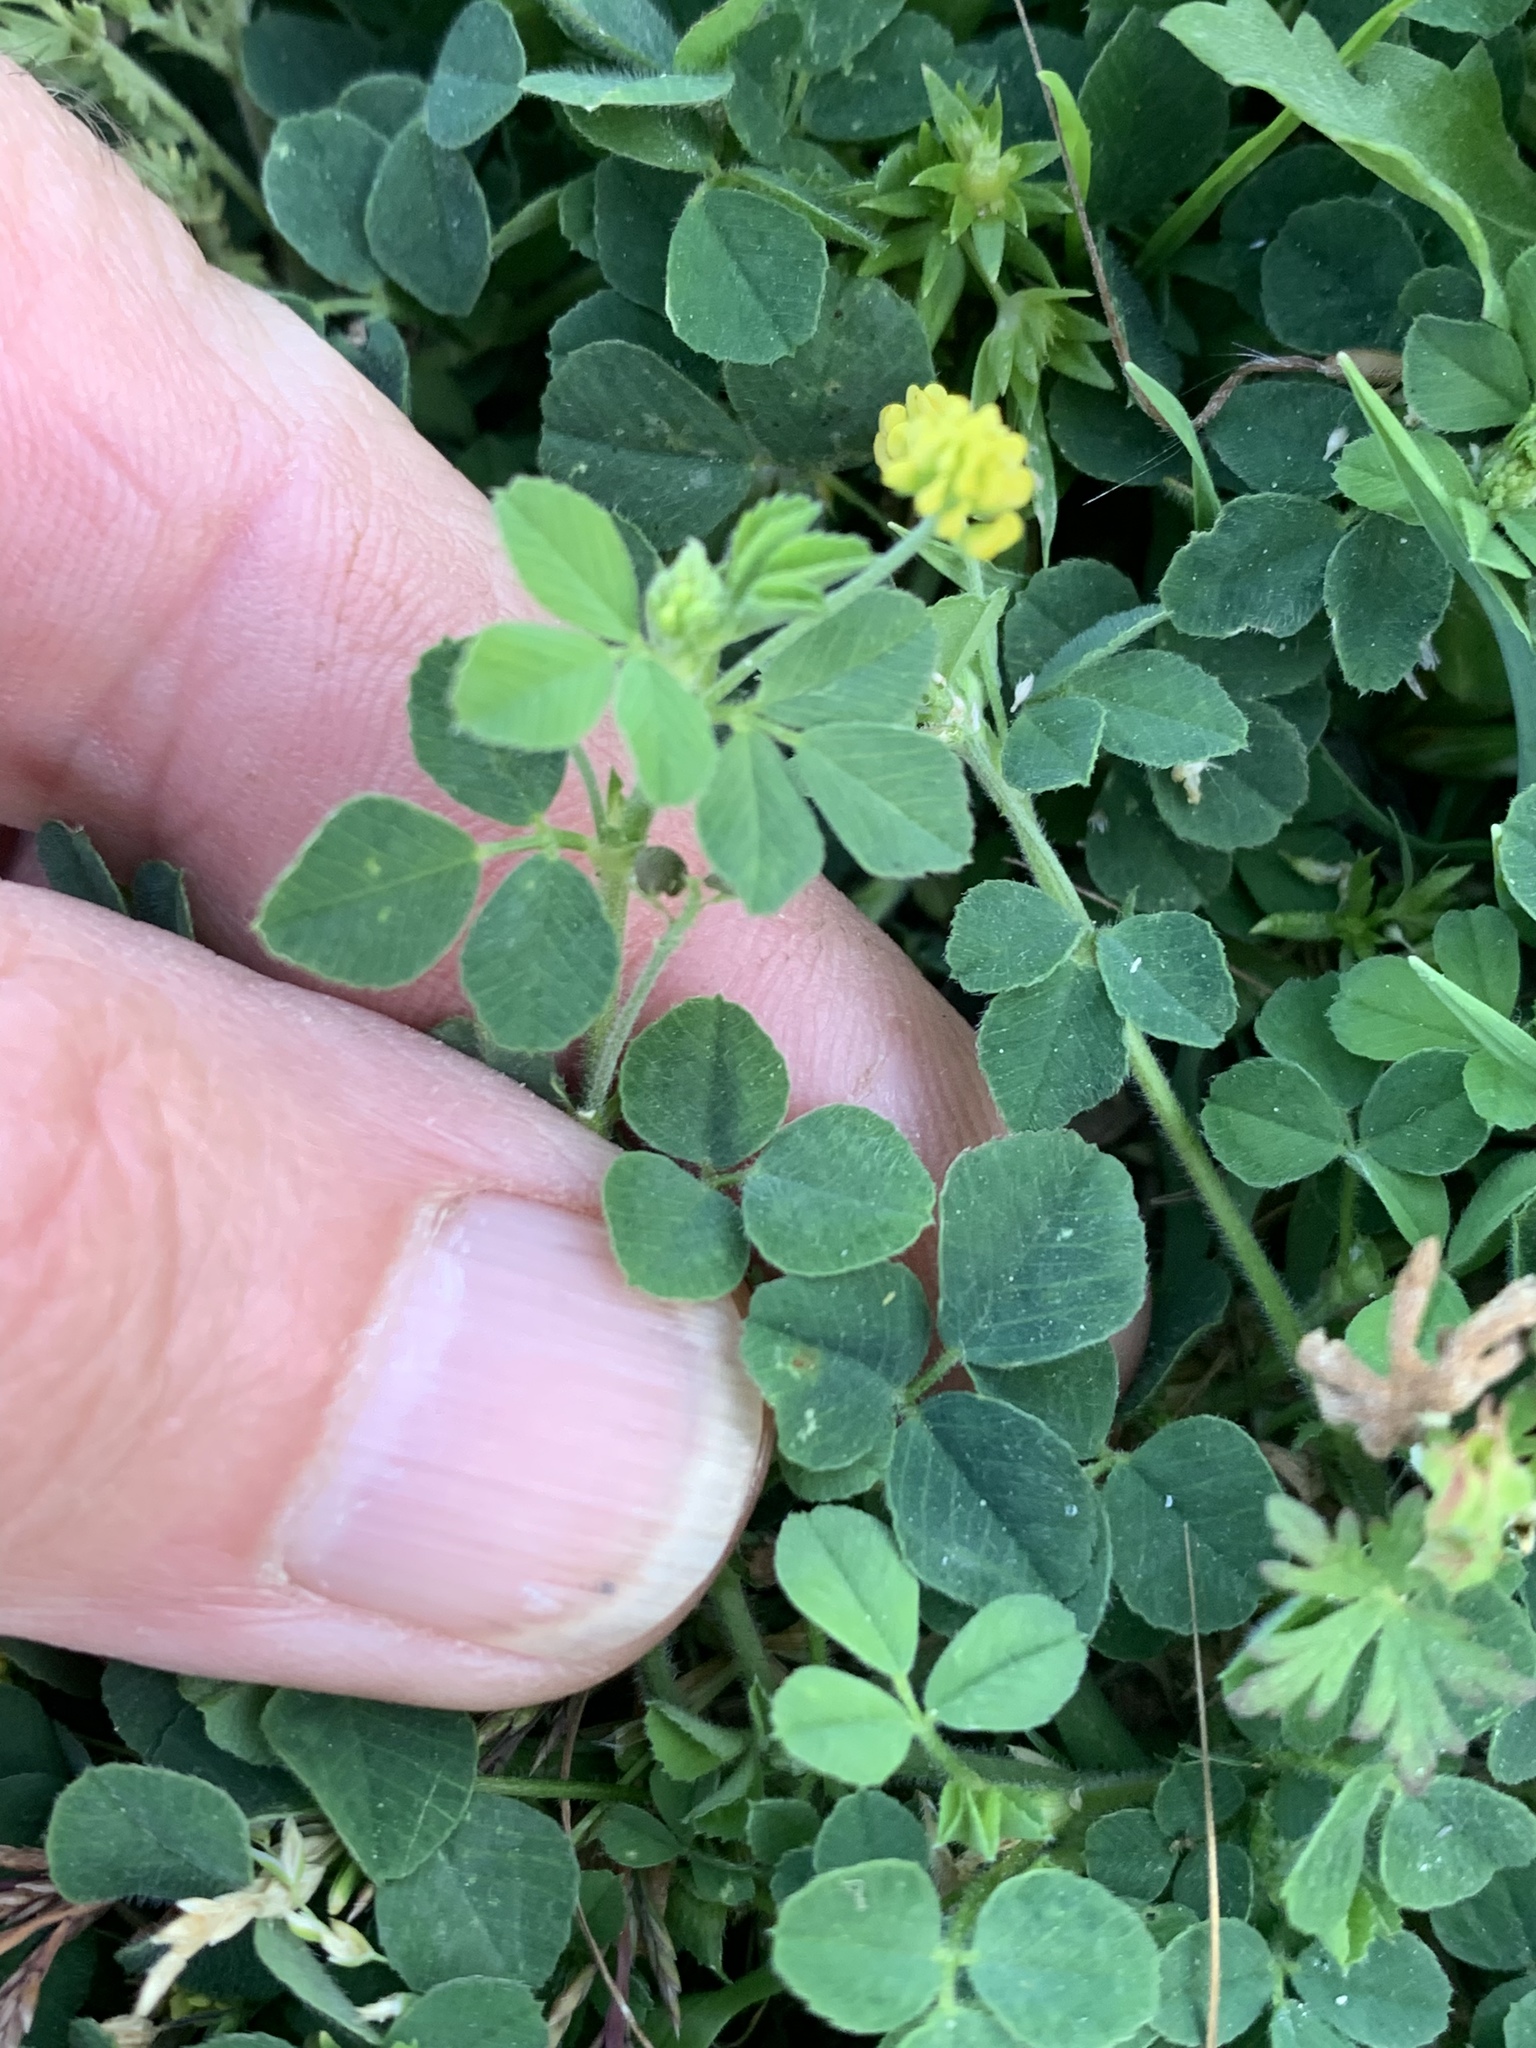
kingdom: Plantae
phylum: Tracheophyta
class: Magnoliopsida
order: Fabales
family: Fabaceae
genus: Medicago
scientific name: Medicago lupulina
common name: Black medick
